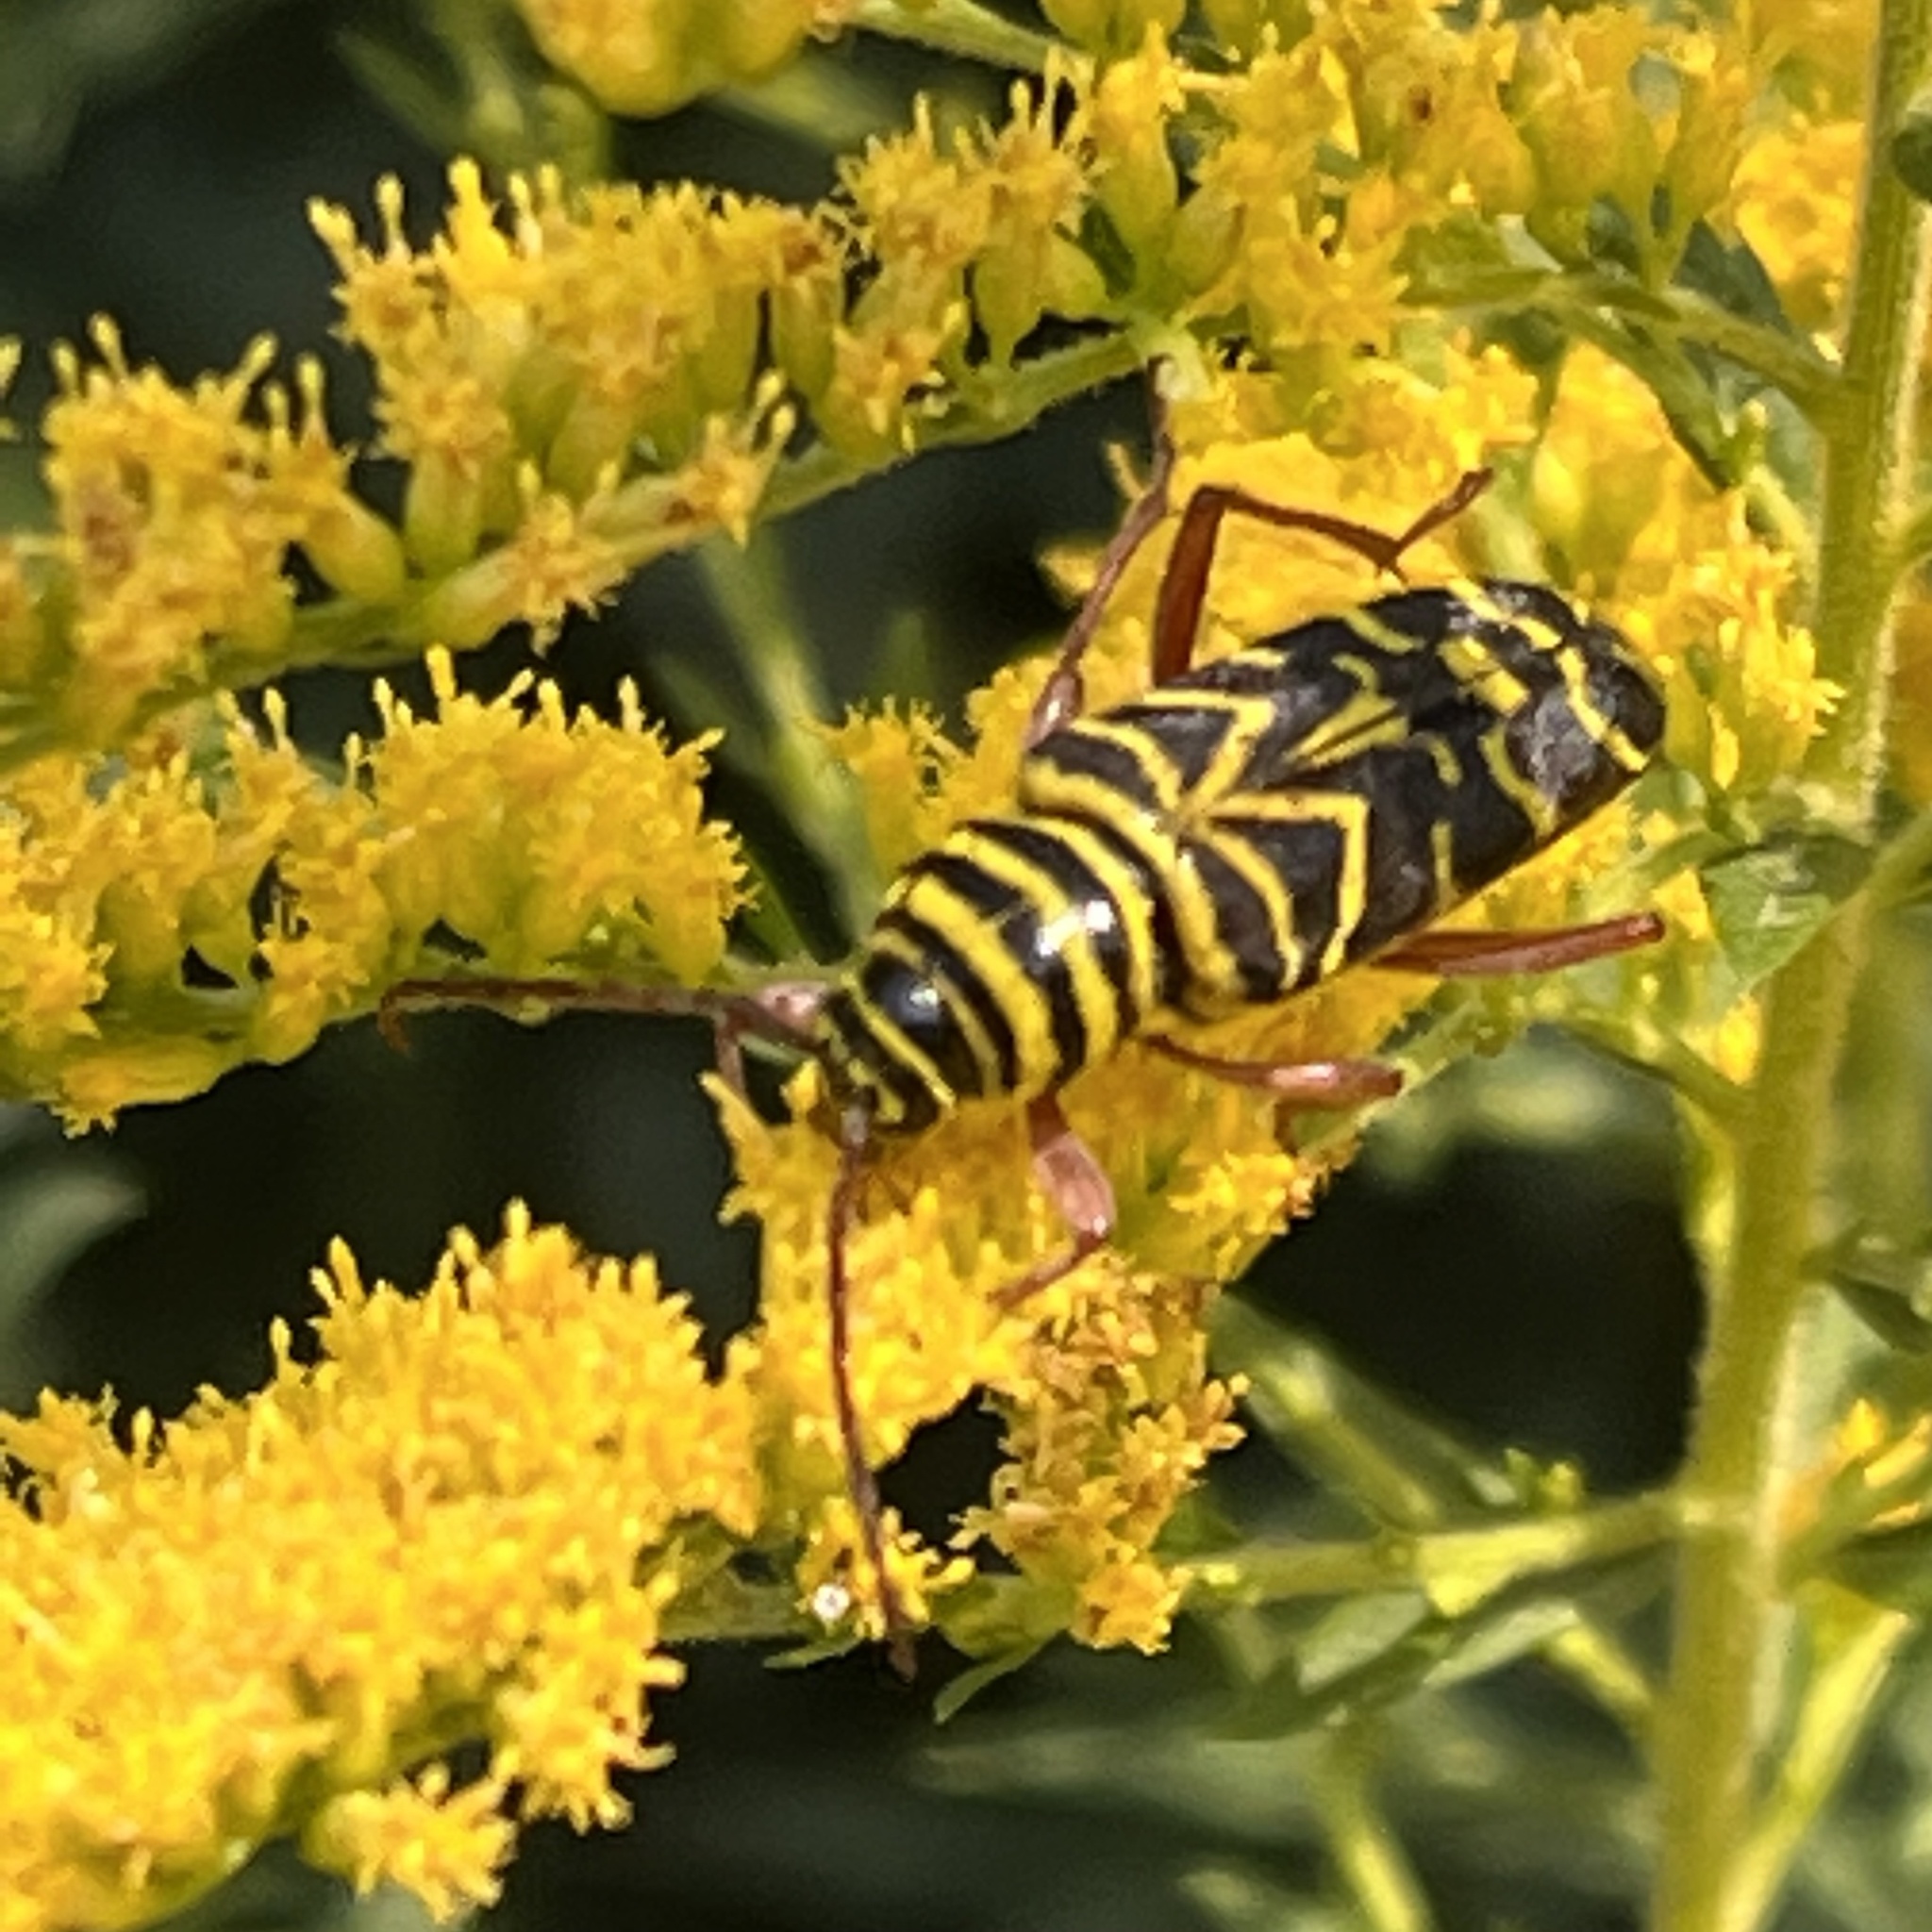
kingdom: Animalia
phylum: Arthropoda
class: Insecta
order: Coleoptera
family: Cerambycidae
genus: Megacyllene
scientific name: Megacyllene robiniae
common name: Locust borer
